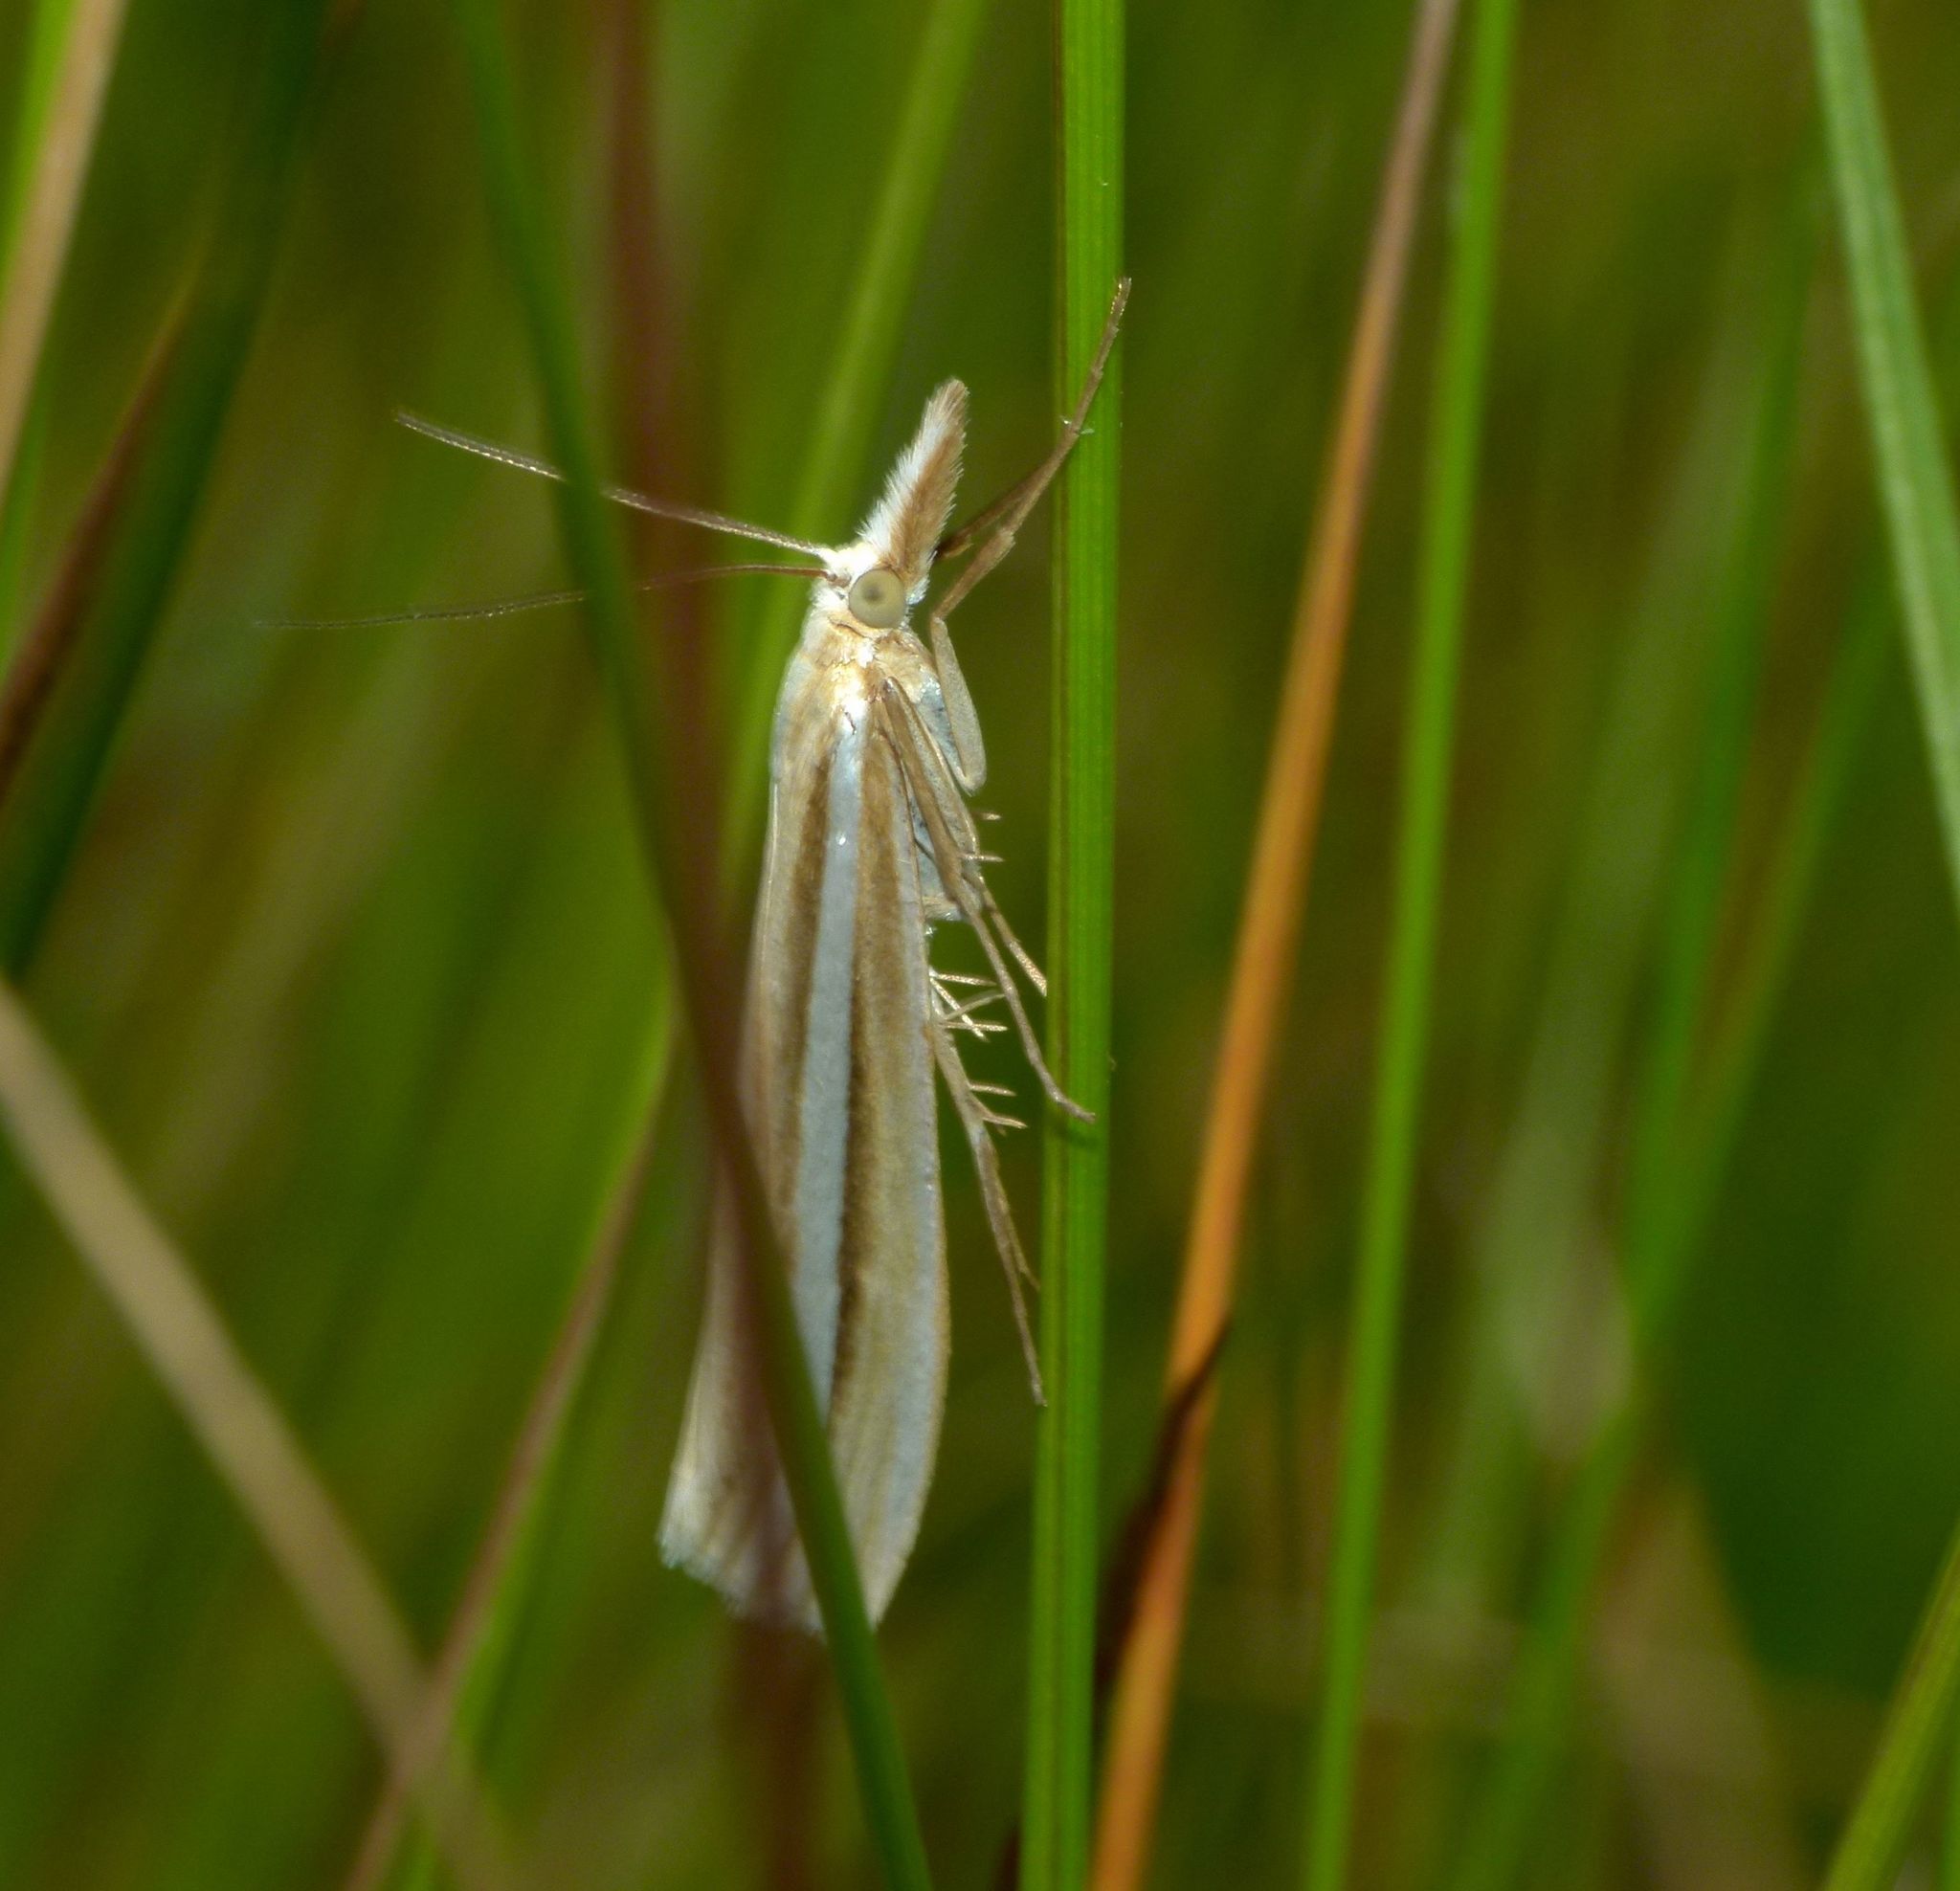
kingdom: Animalia
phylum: Arthropoda
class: Insecta
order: Lepidoptera
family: Crambidae
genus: Orocrambus
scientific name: Orocrambus lewisi
